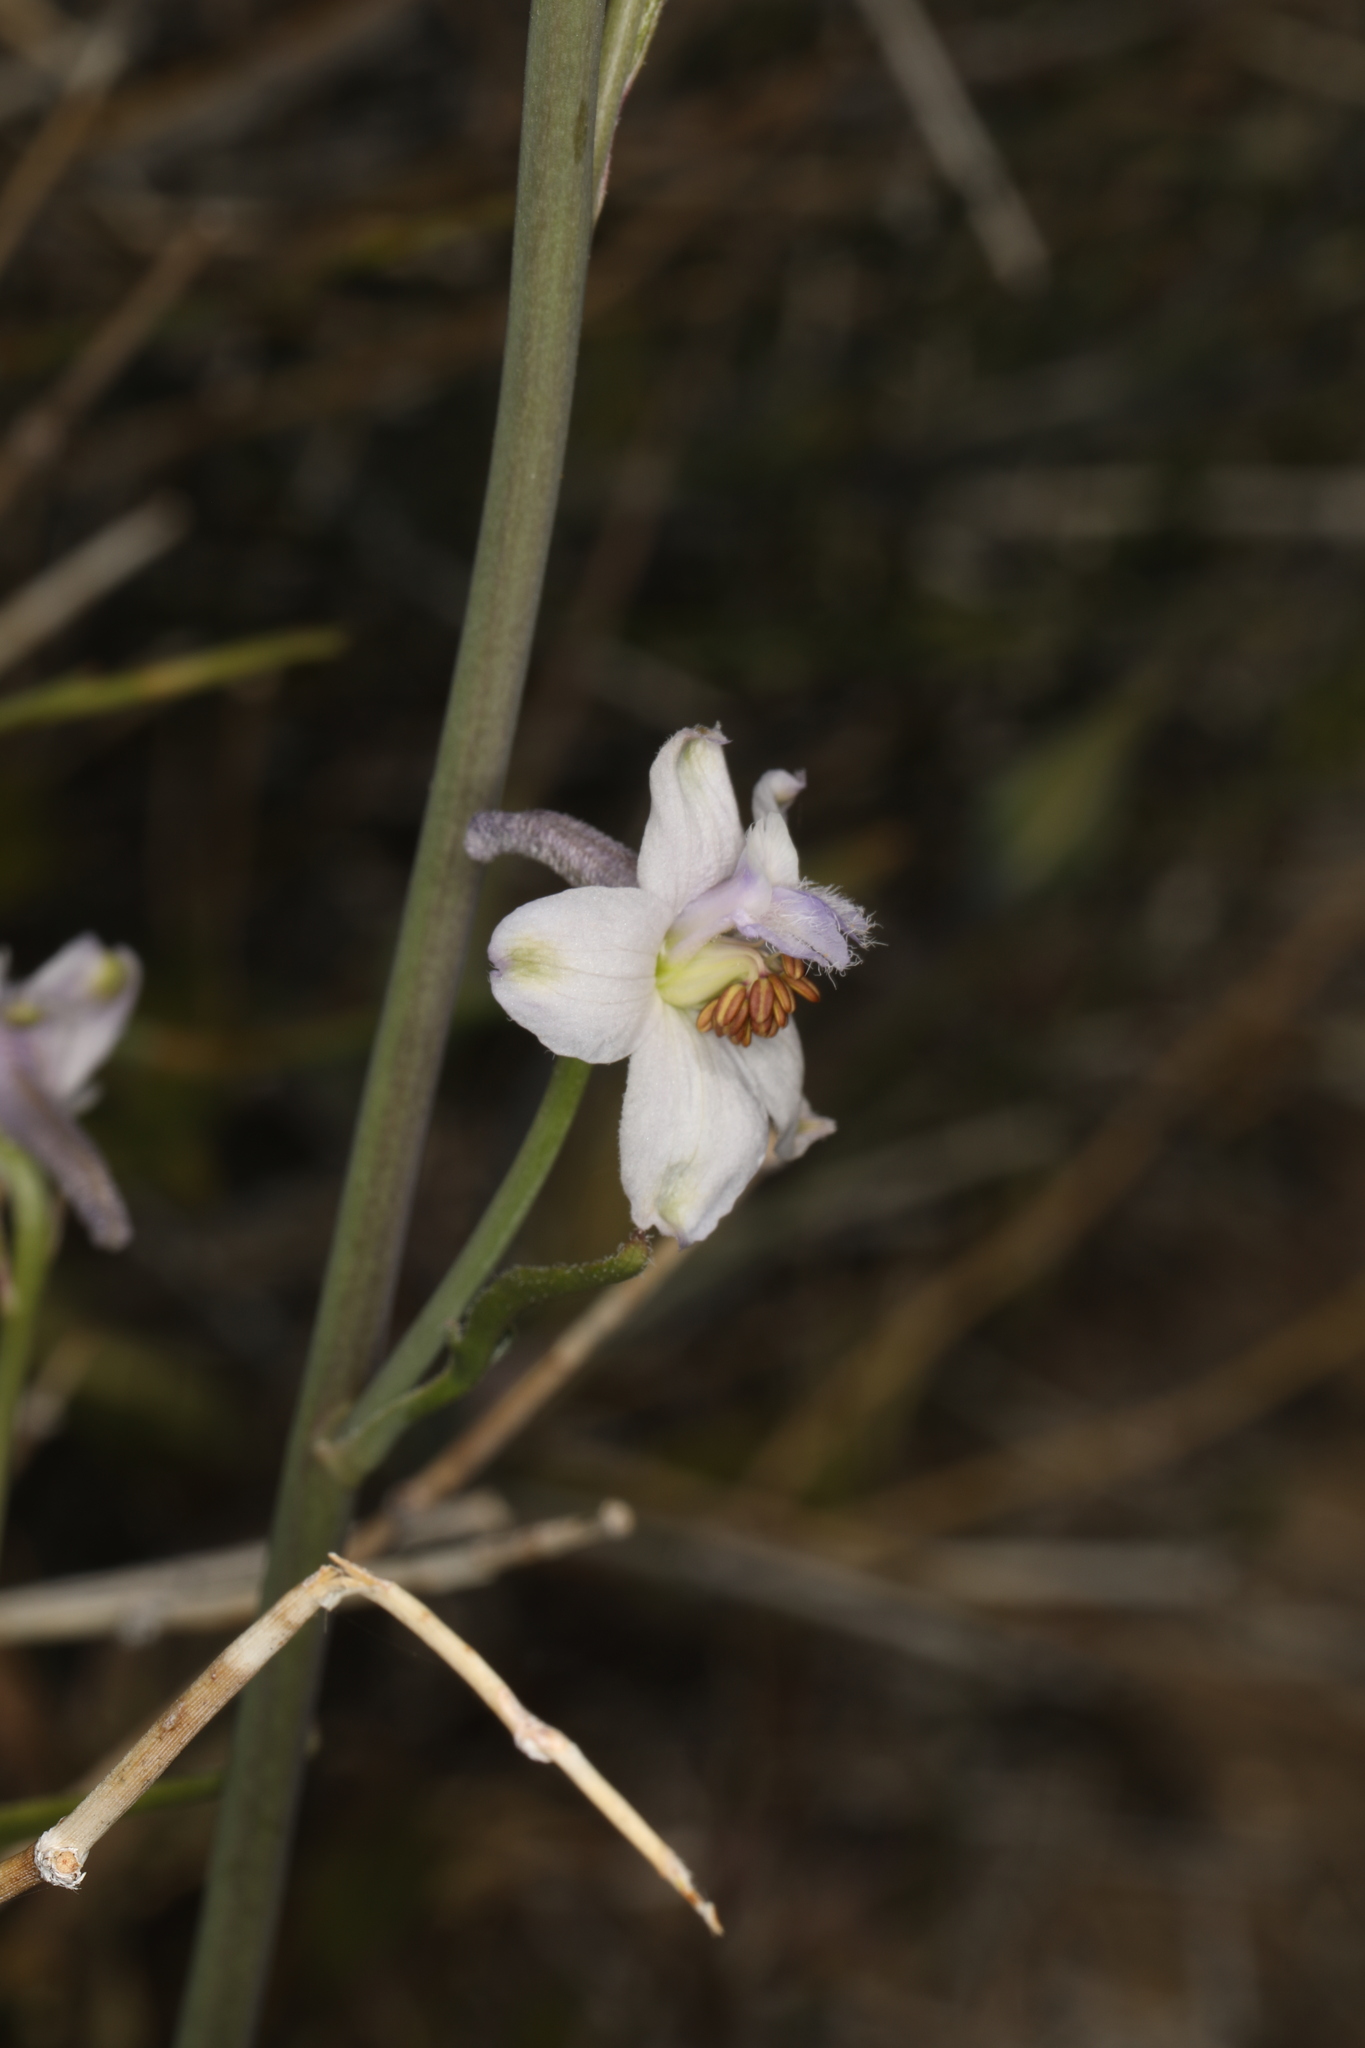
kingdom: Plantae
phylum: Tracheophyta
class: Magnoliopsida
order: Ranunculales
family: Ranunculaceae
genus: Delphinium
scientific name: Delphinium parishii
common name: Apache larkspur
